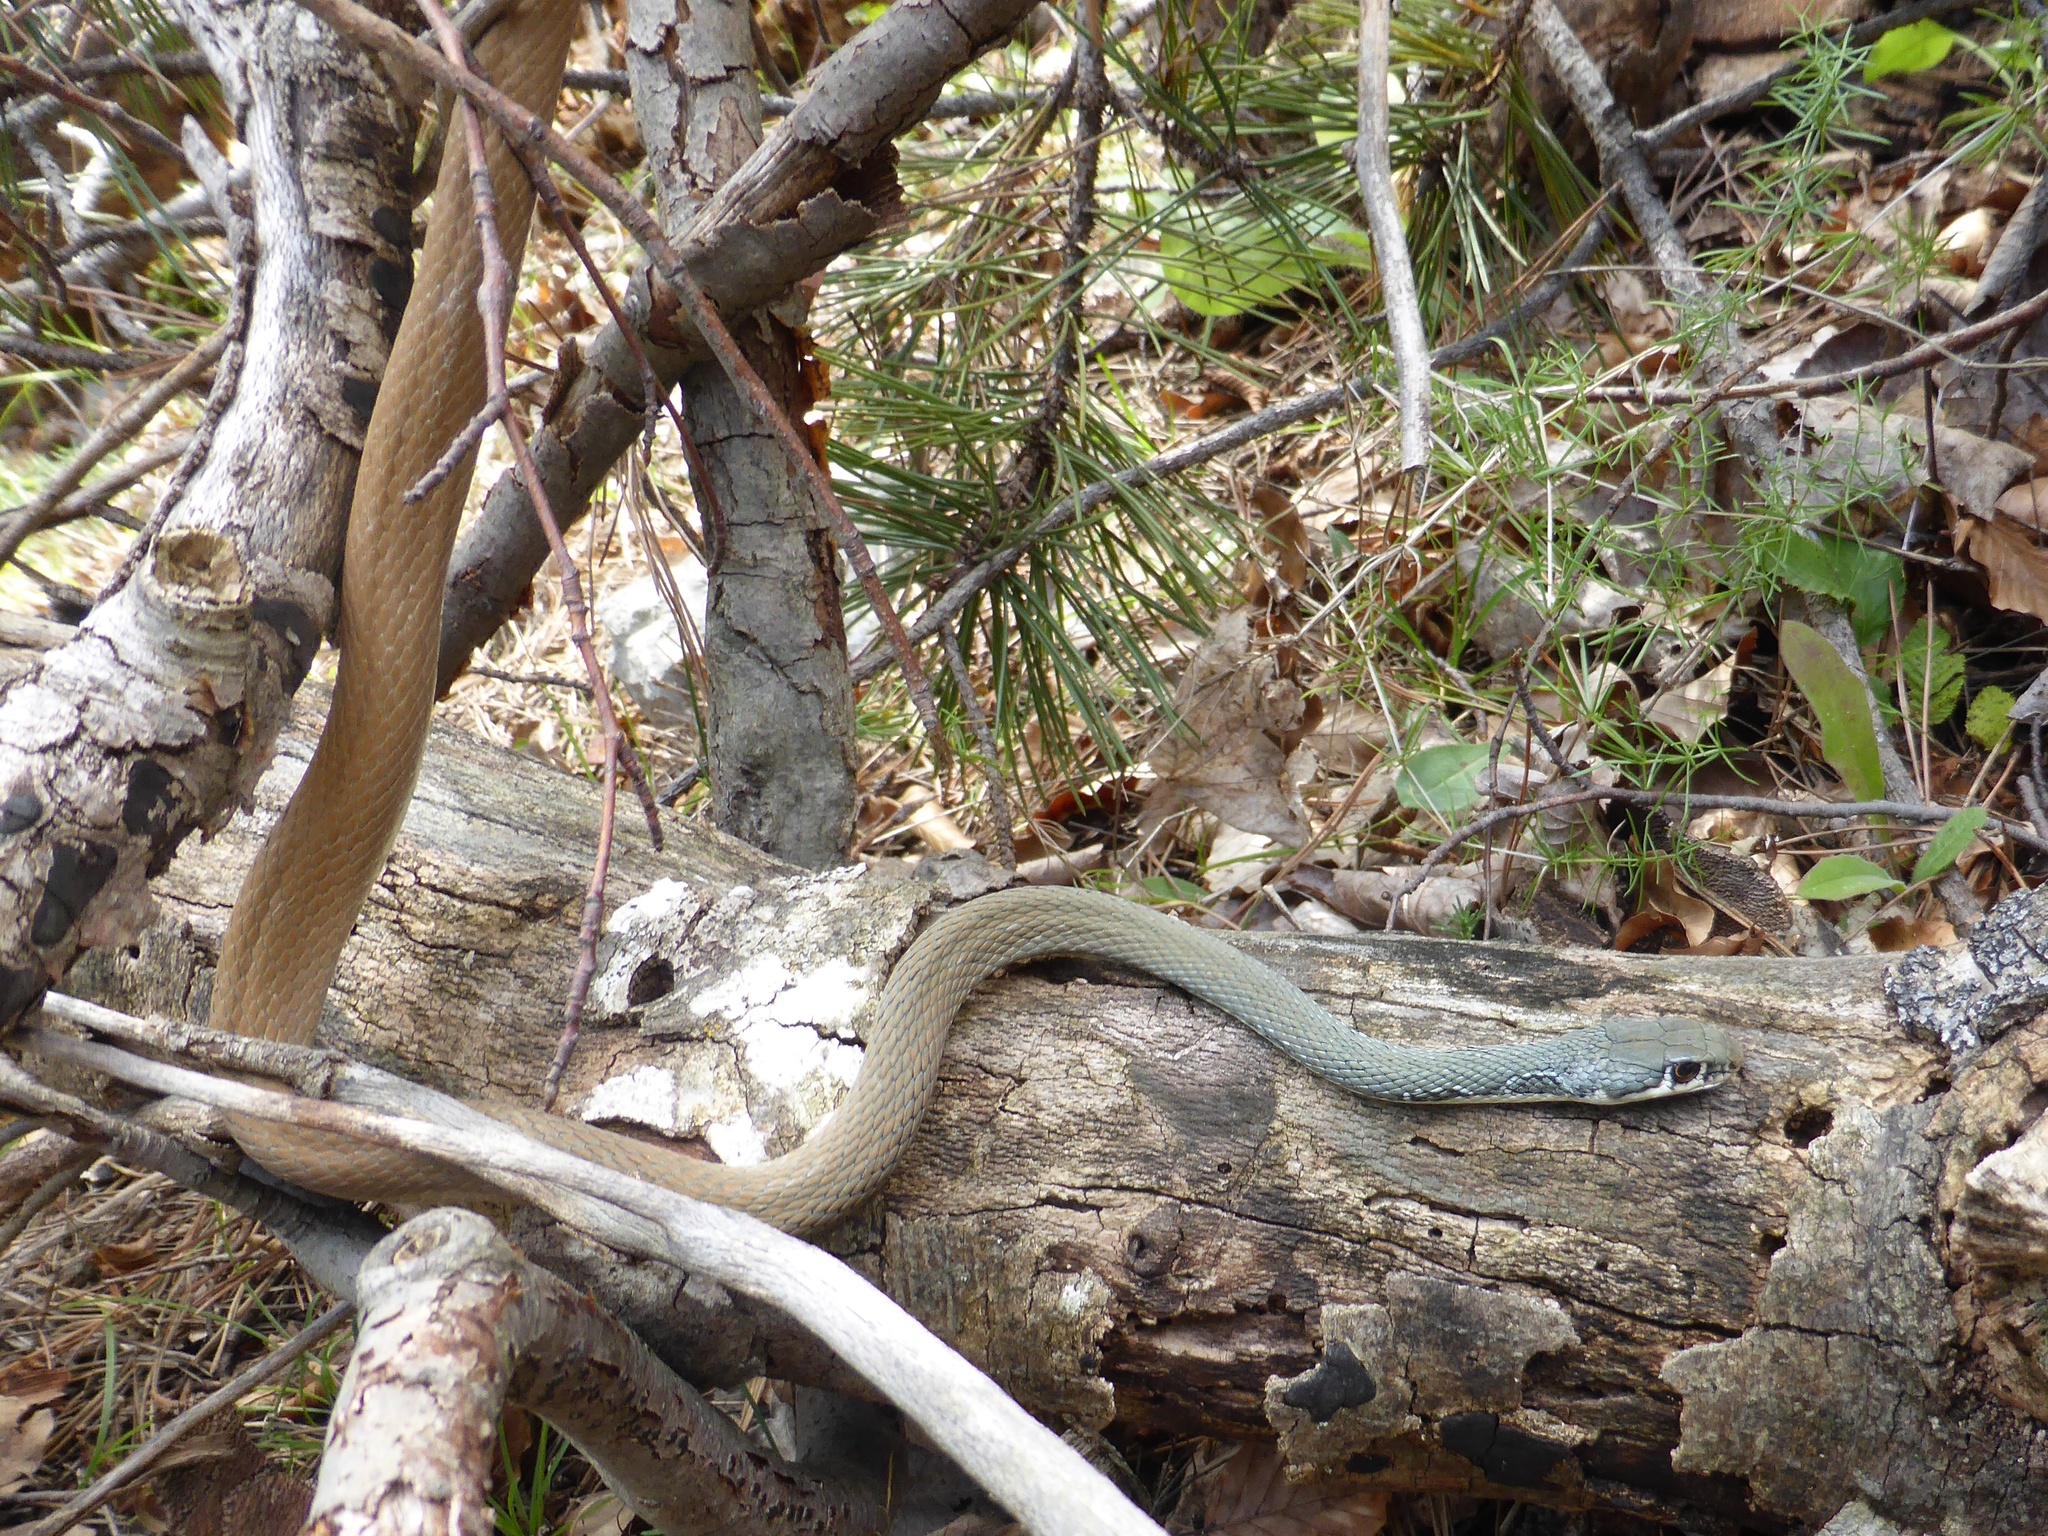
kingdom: Animalia
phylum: Chordata
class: Squamata
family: Colubridae
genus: Platyceps
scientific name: Platyceps najadum
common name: Dahl's whip snake
